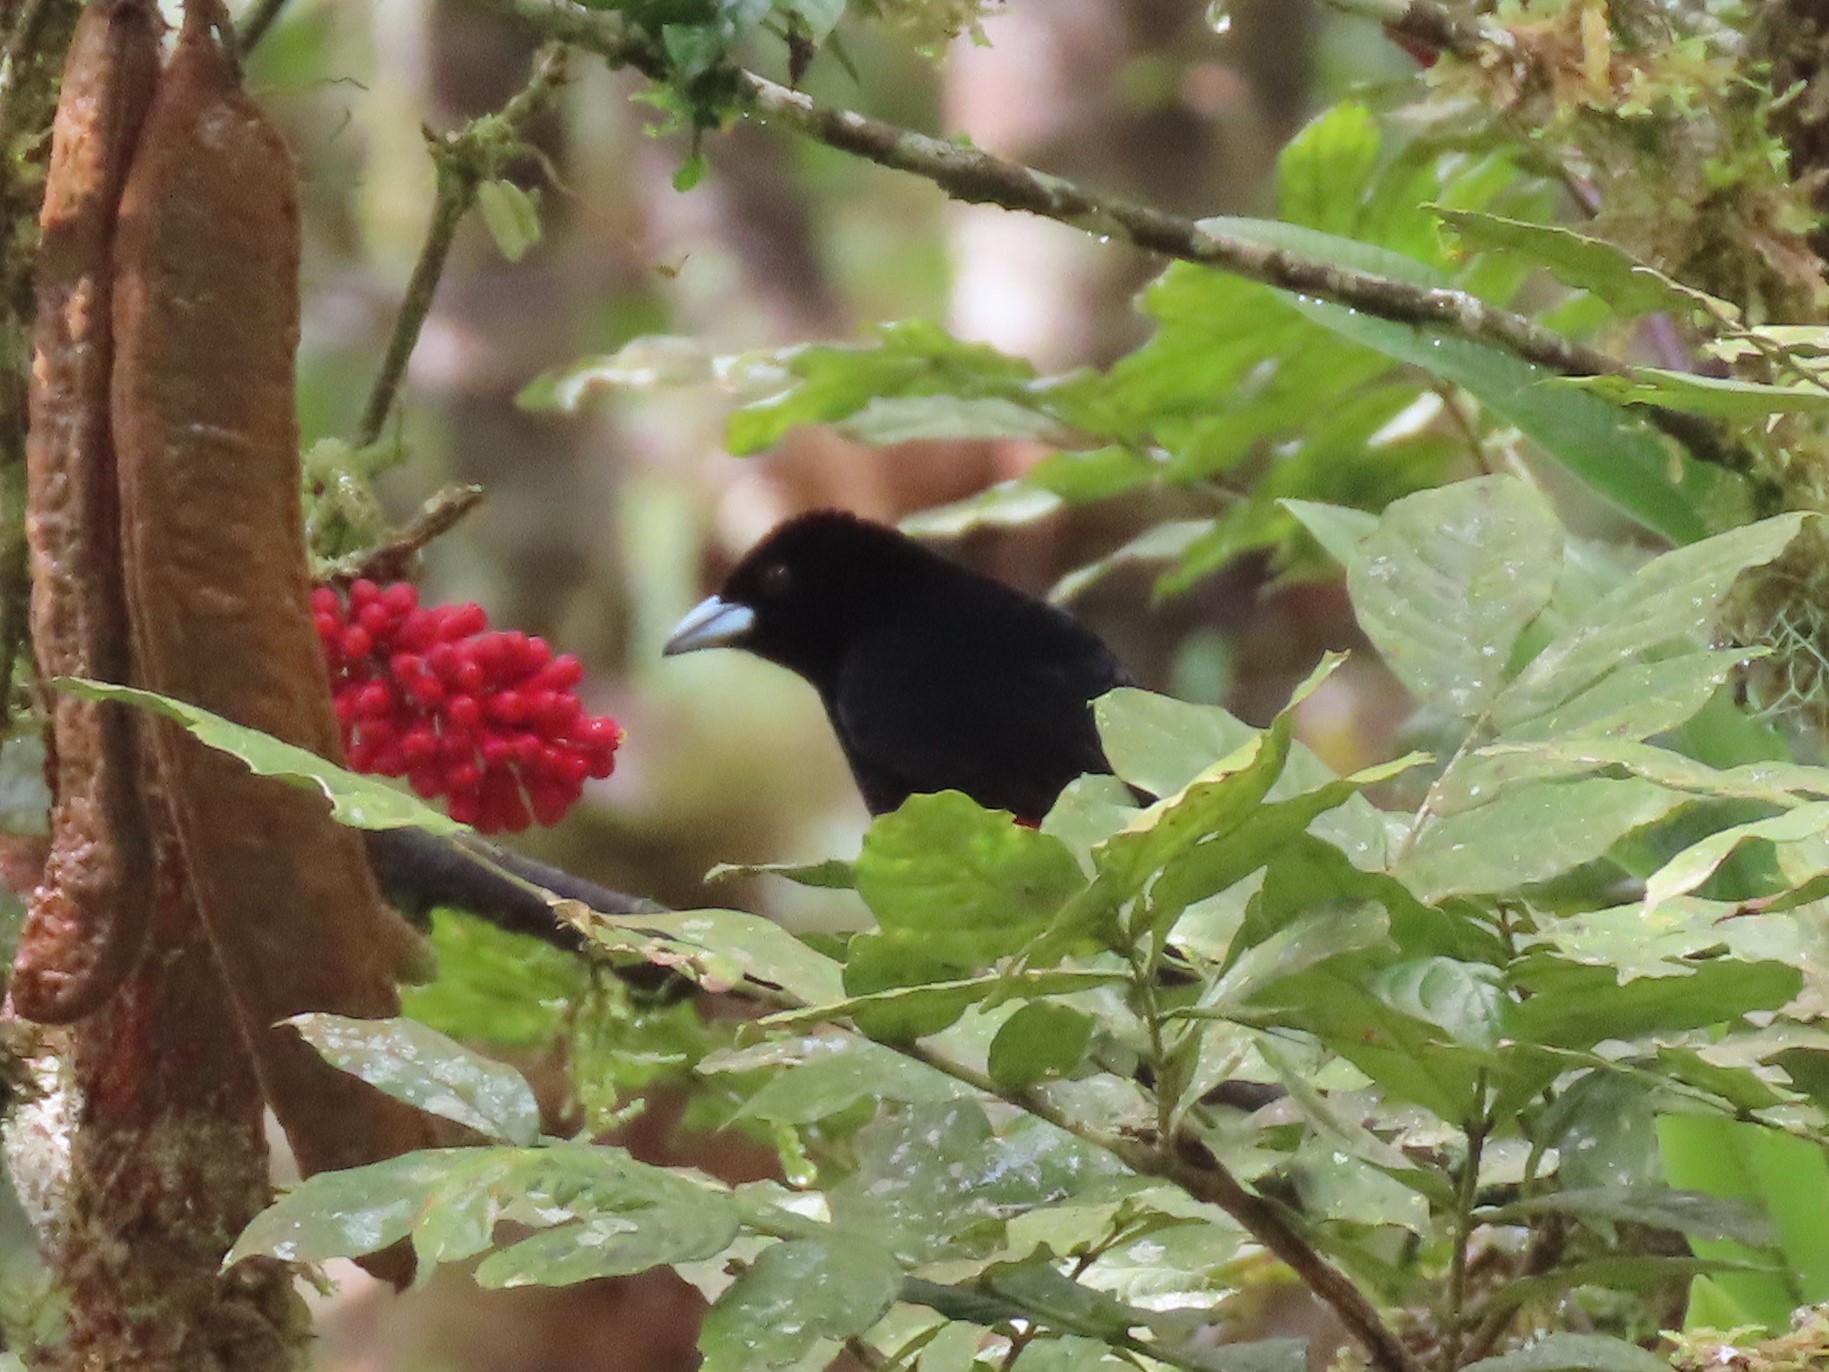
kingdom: Animalia
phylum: Chordata
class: Aves
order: Passeriformes
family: Thraupidae
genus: Ramphocelus
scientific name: Ramphocelus flammigerus
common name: Flame-rumped tanager
